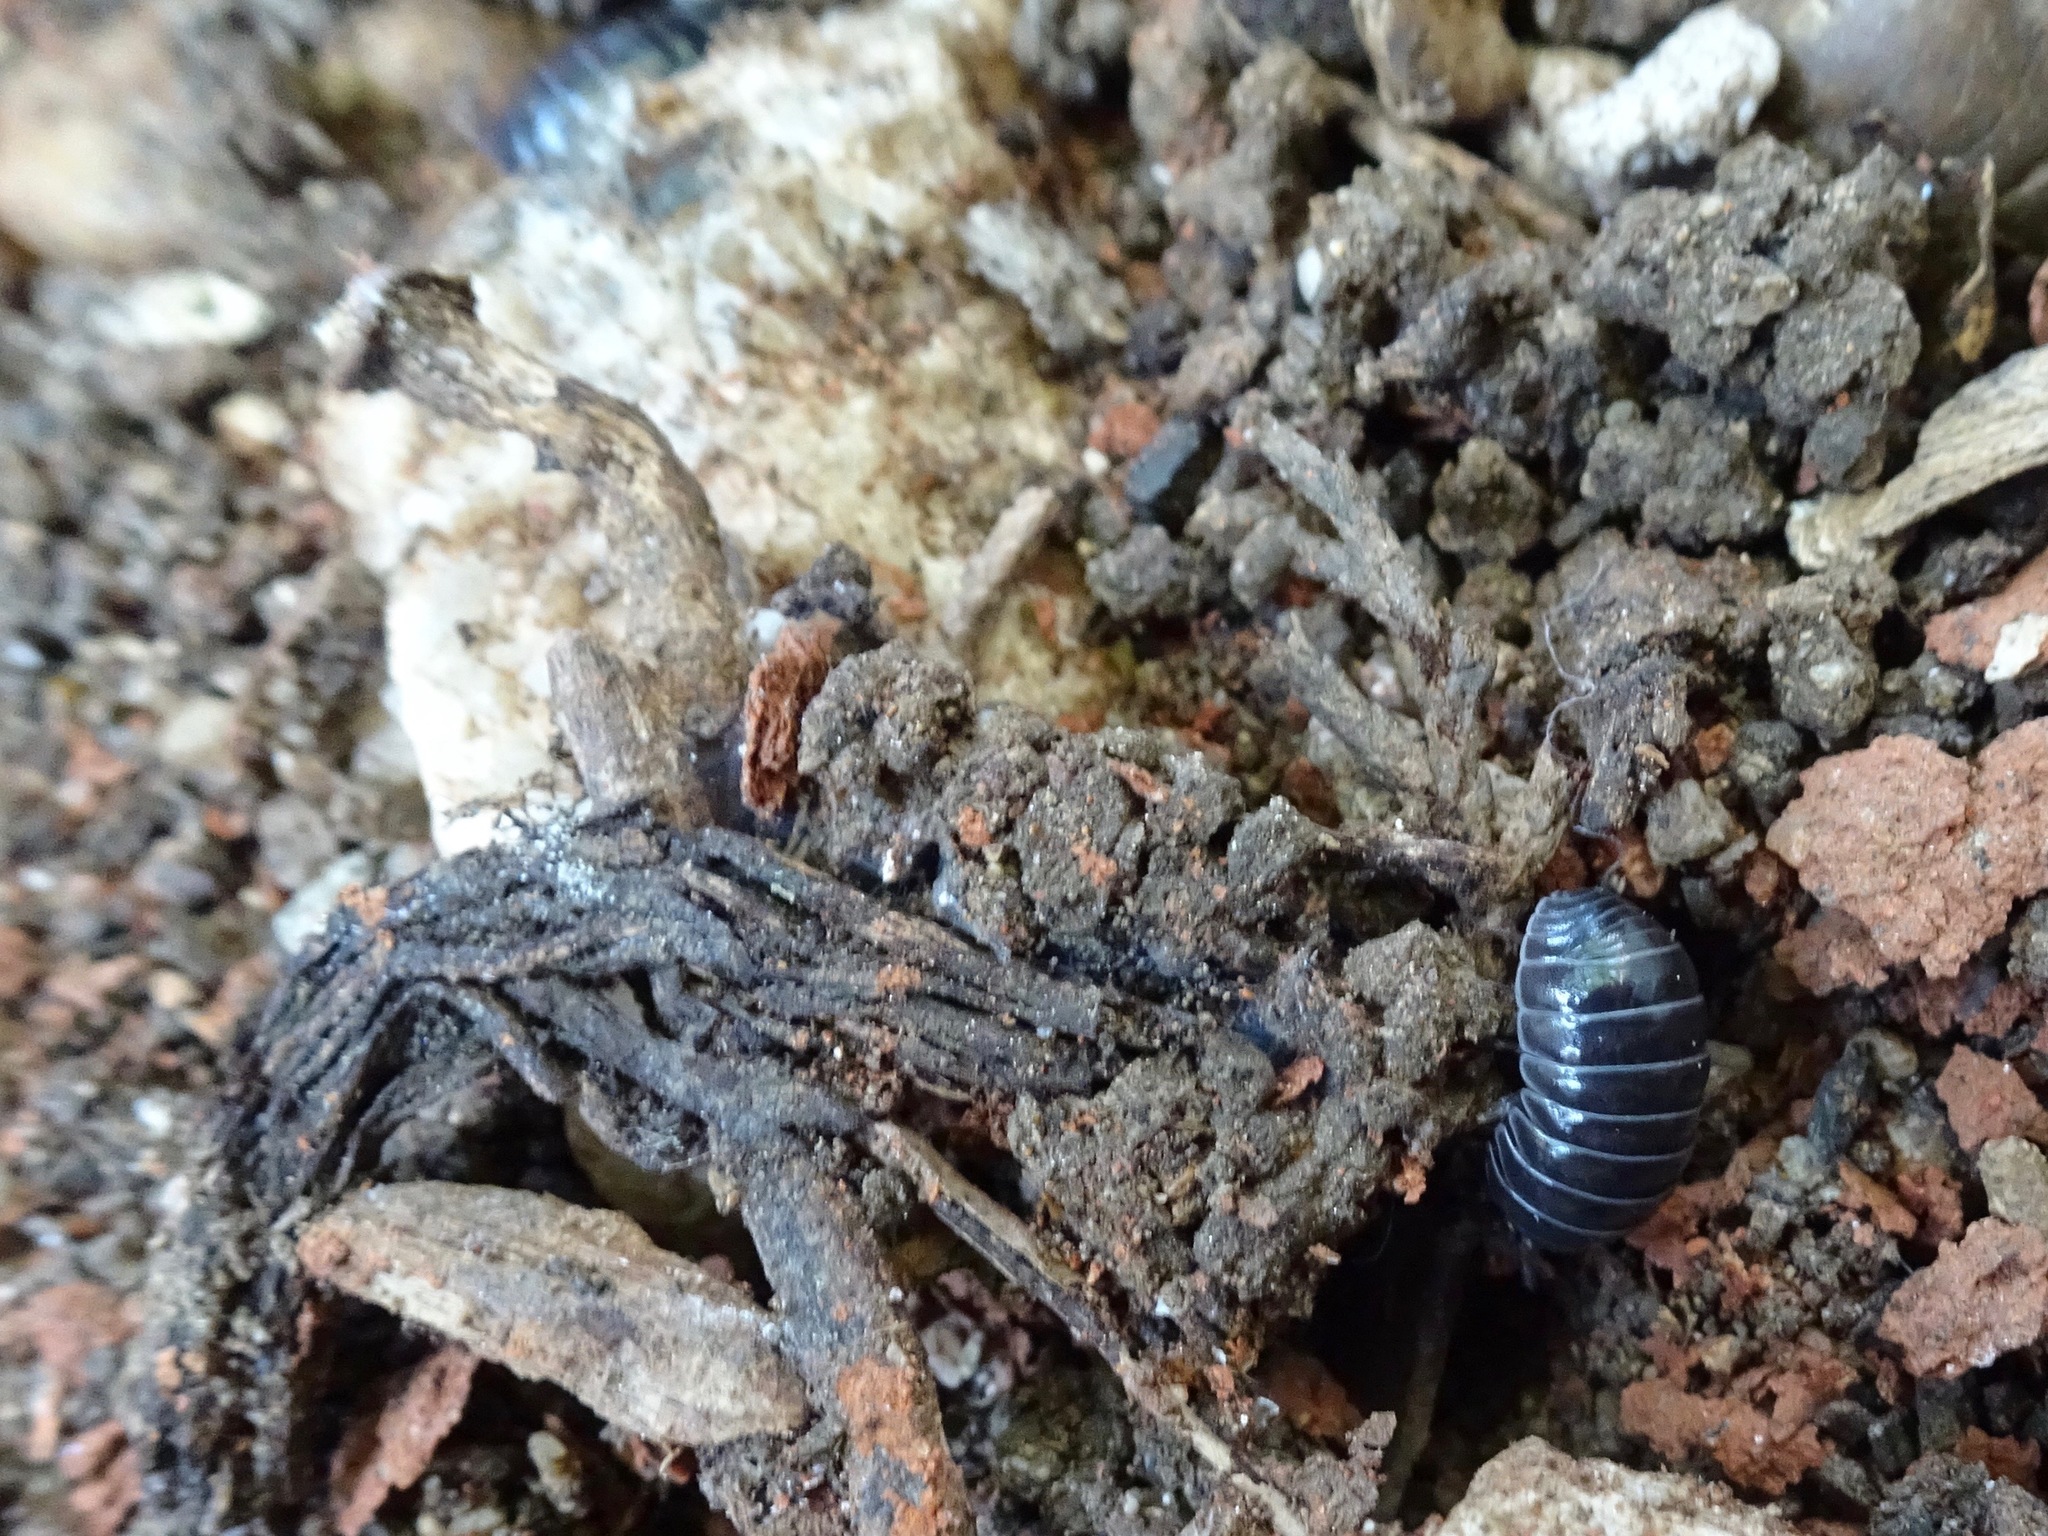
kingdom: Animalia
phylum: Arthropoda
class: Malacostraca
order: Isopoda
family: Armadillidiidae
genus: Armadillidium
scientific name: Armadillidium vulgare
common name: Common pill woodlouse
